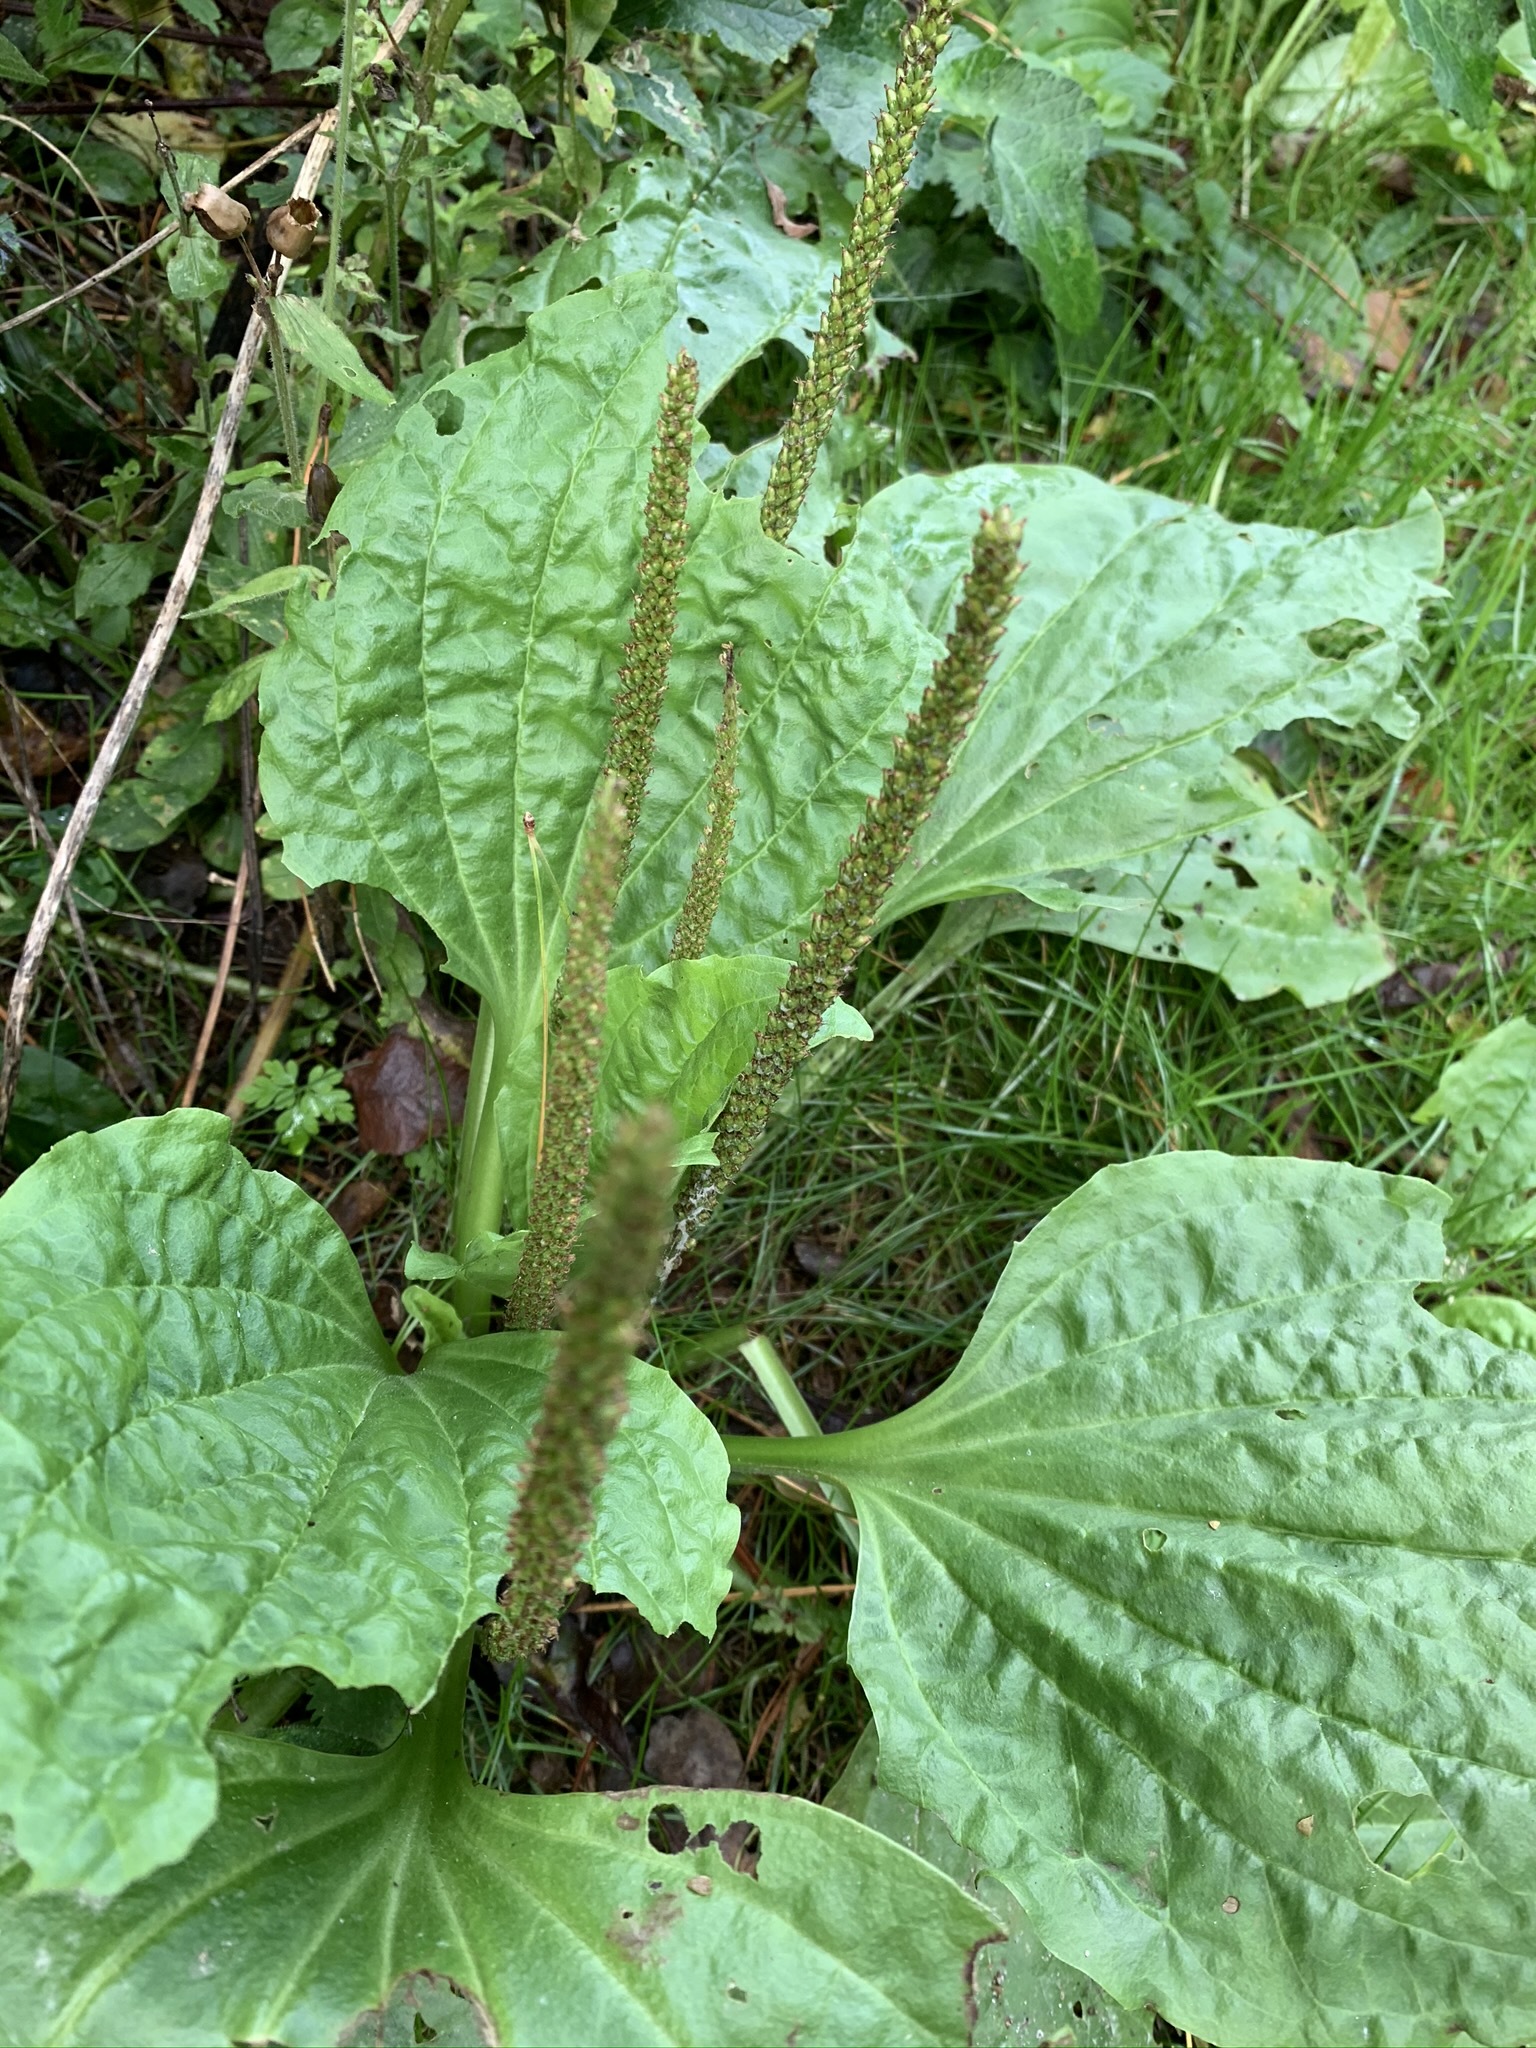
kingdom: Plantae
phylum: Tracheophyta
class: Magnoliopsida
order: Lamiales
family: Plantaginaceae
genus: Plantago
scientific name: Plantago major
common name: Common plantain
